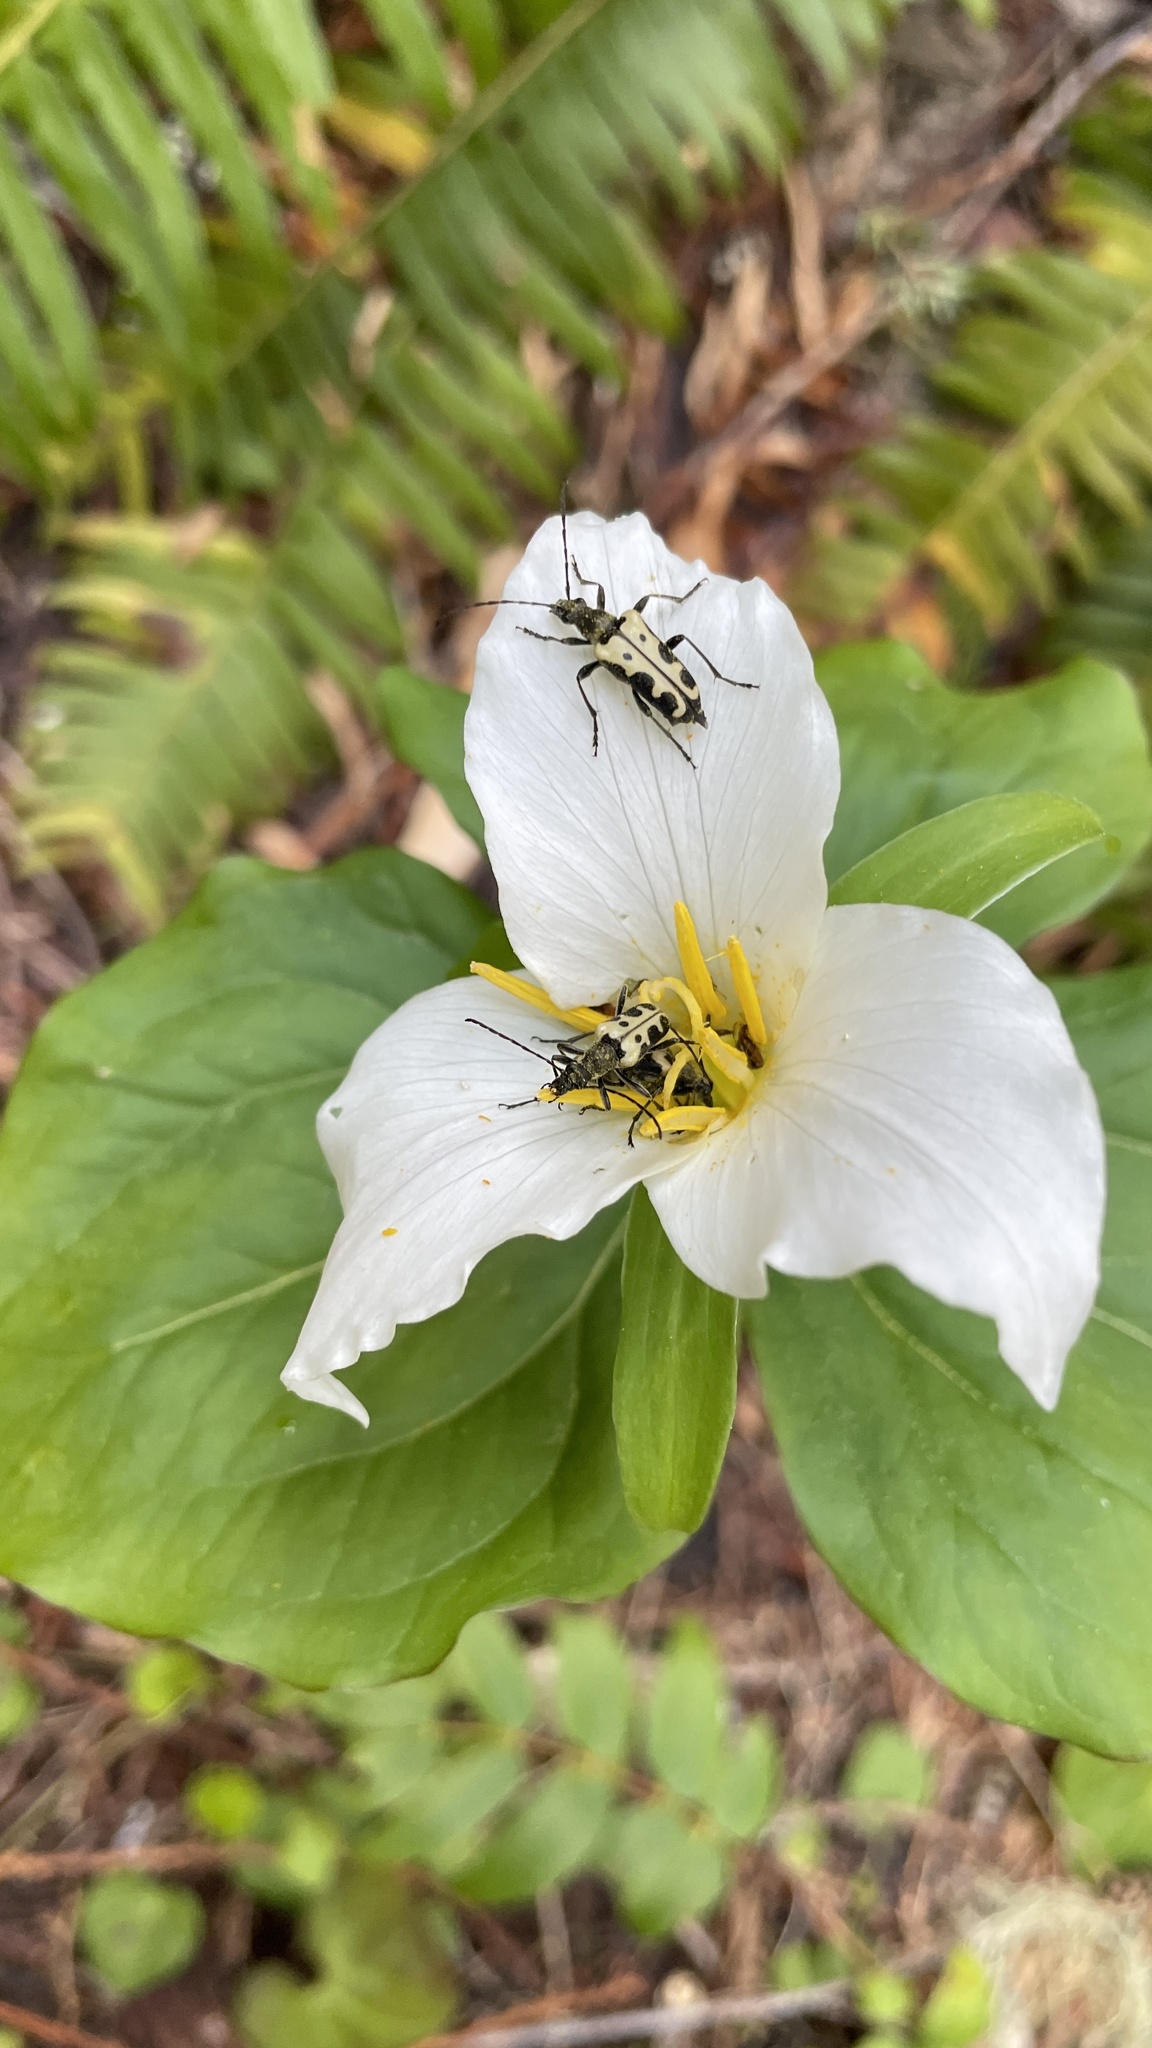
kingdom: Animalia
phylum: Arthropoda
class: Insecta
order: Coleoptera
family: Cerambycidae
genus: Evodinus
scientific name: Evodinus monticola
